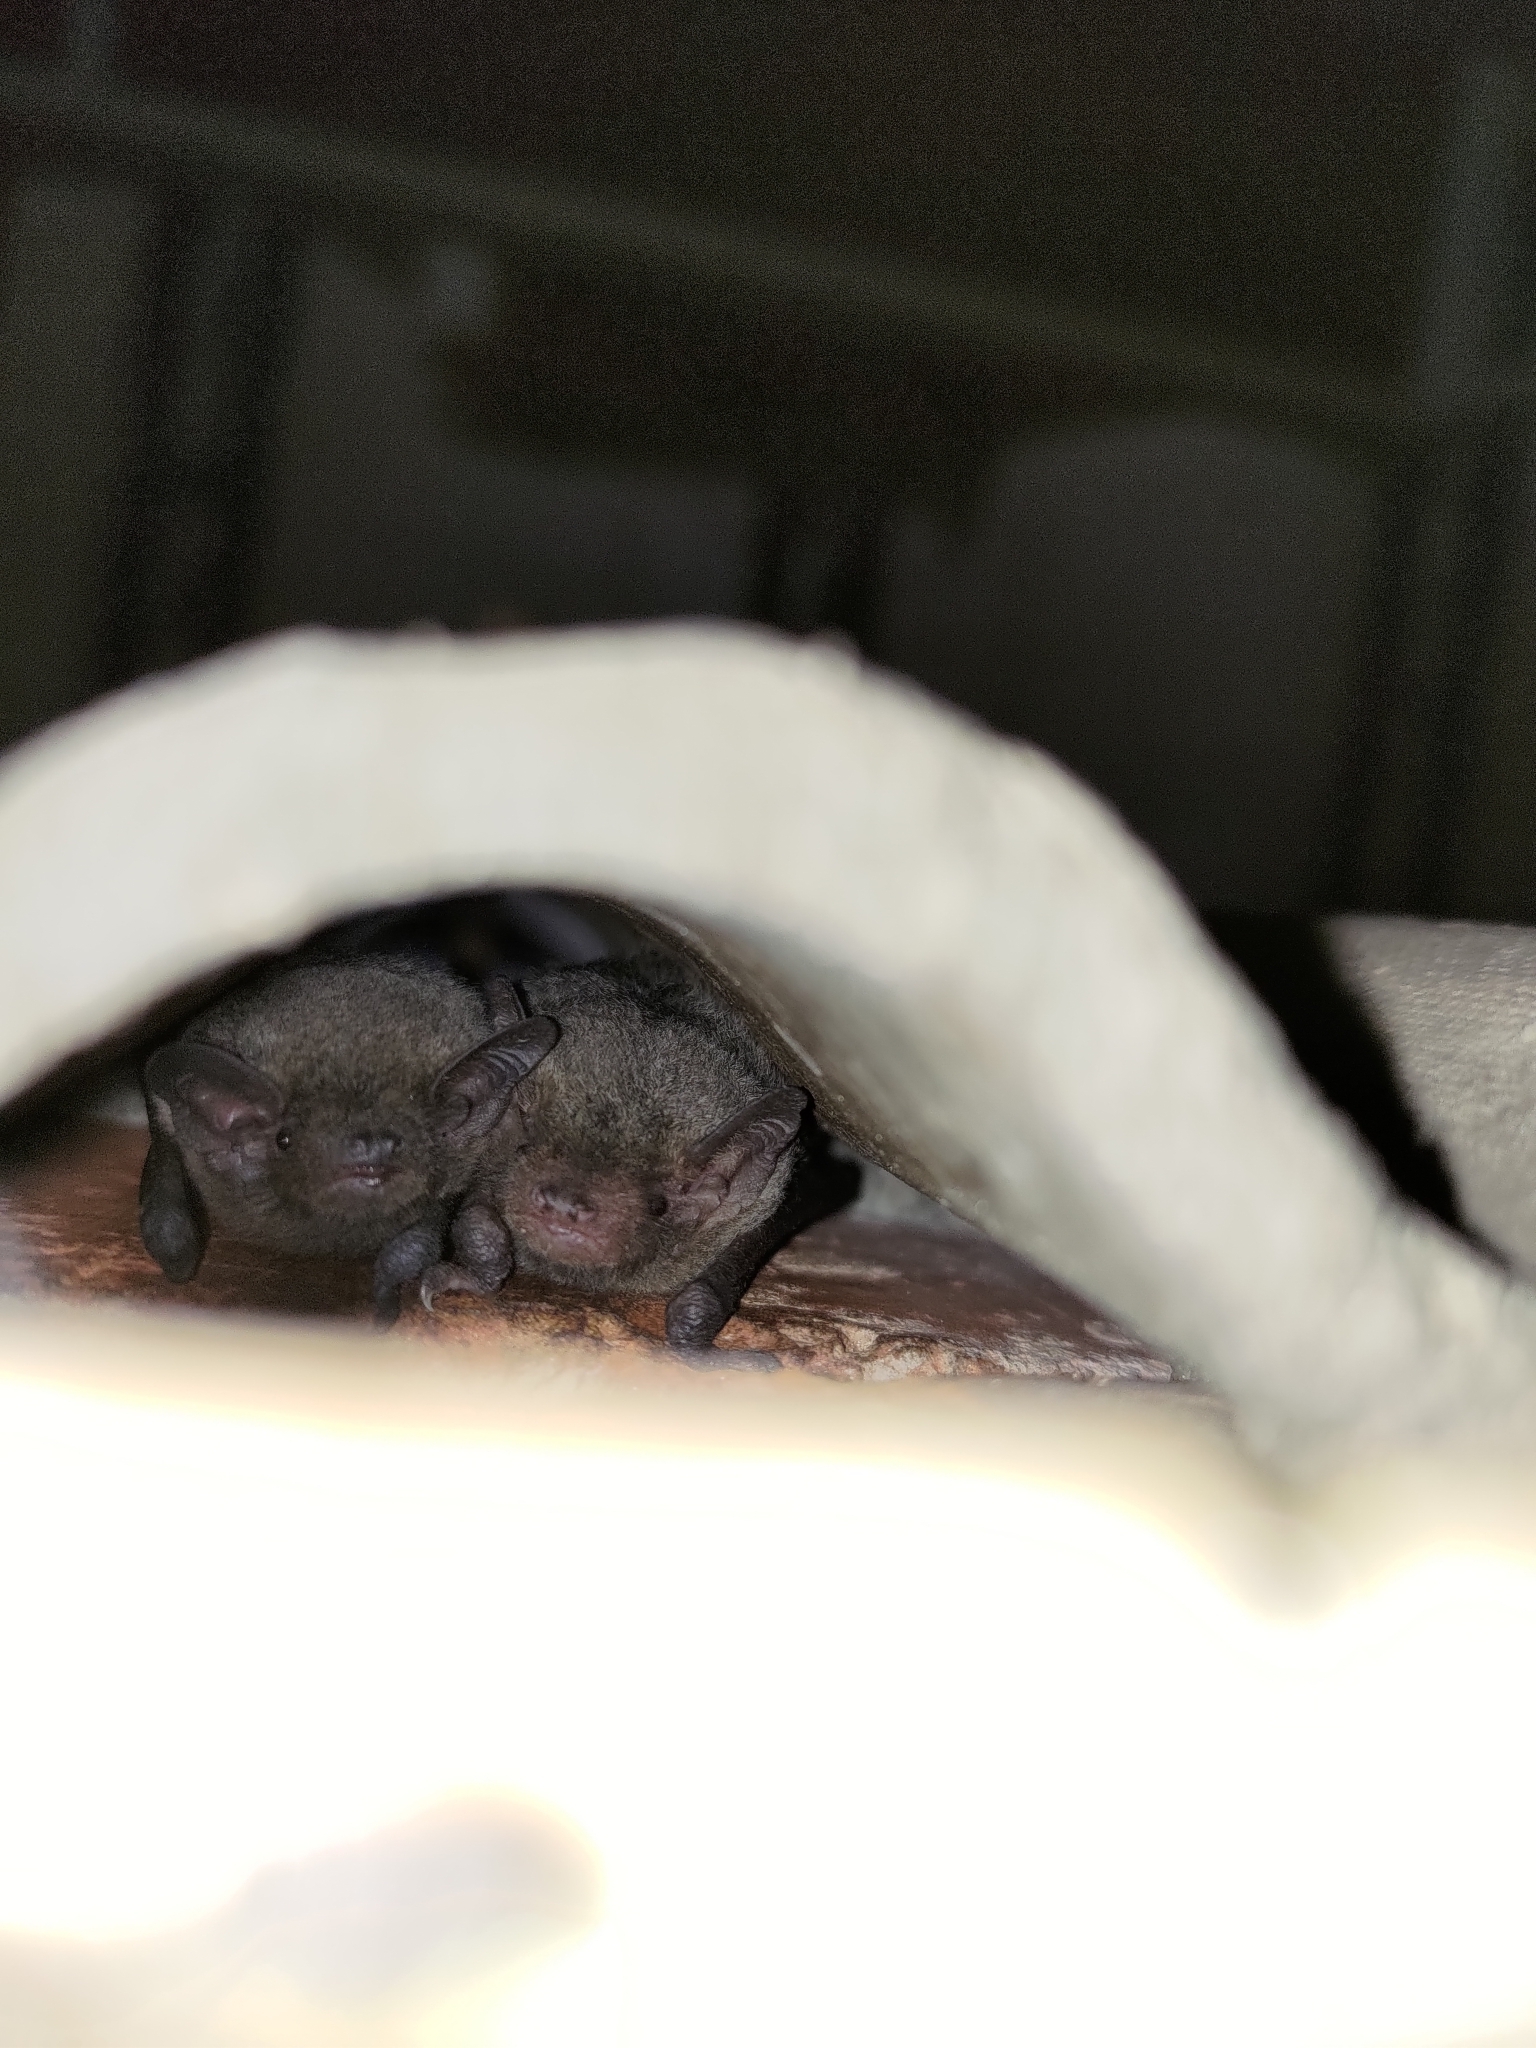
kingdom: Animalia
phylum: Chordata
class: Mammalia
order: Chiroptera
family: Vespertilionidae
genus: Pipistrellus
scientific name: Pipistrellus abramus
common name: Japanese pipistrelle
